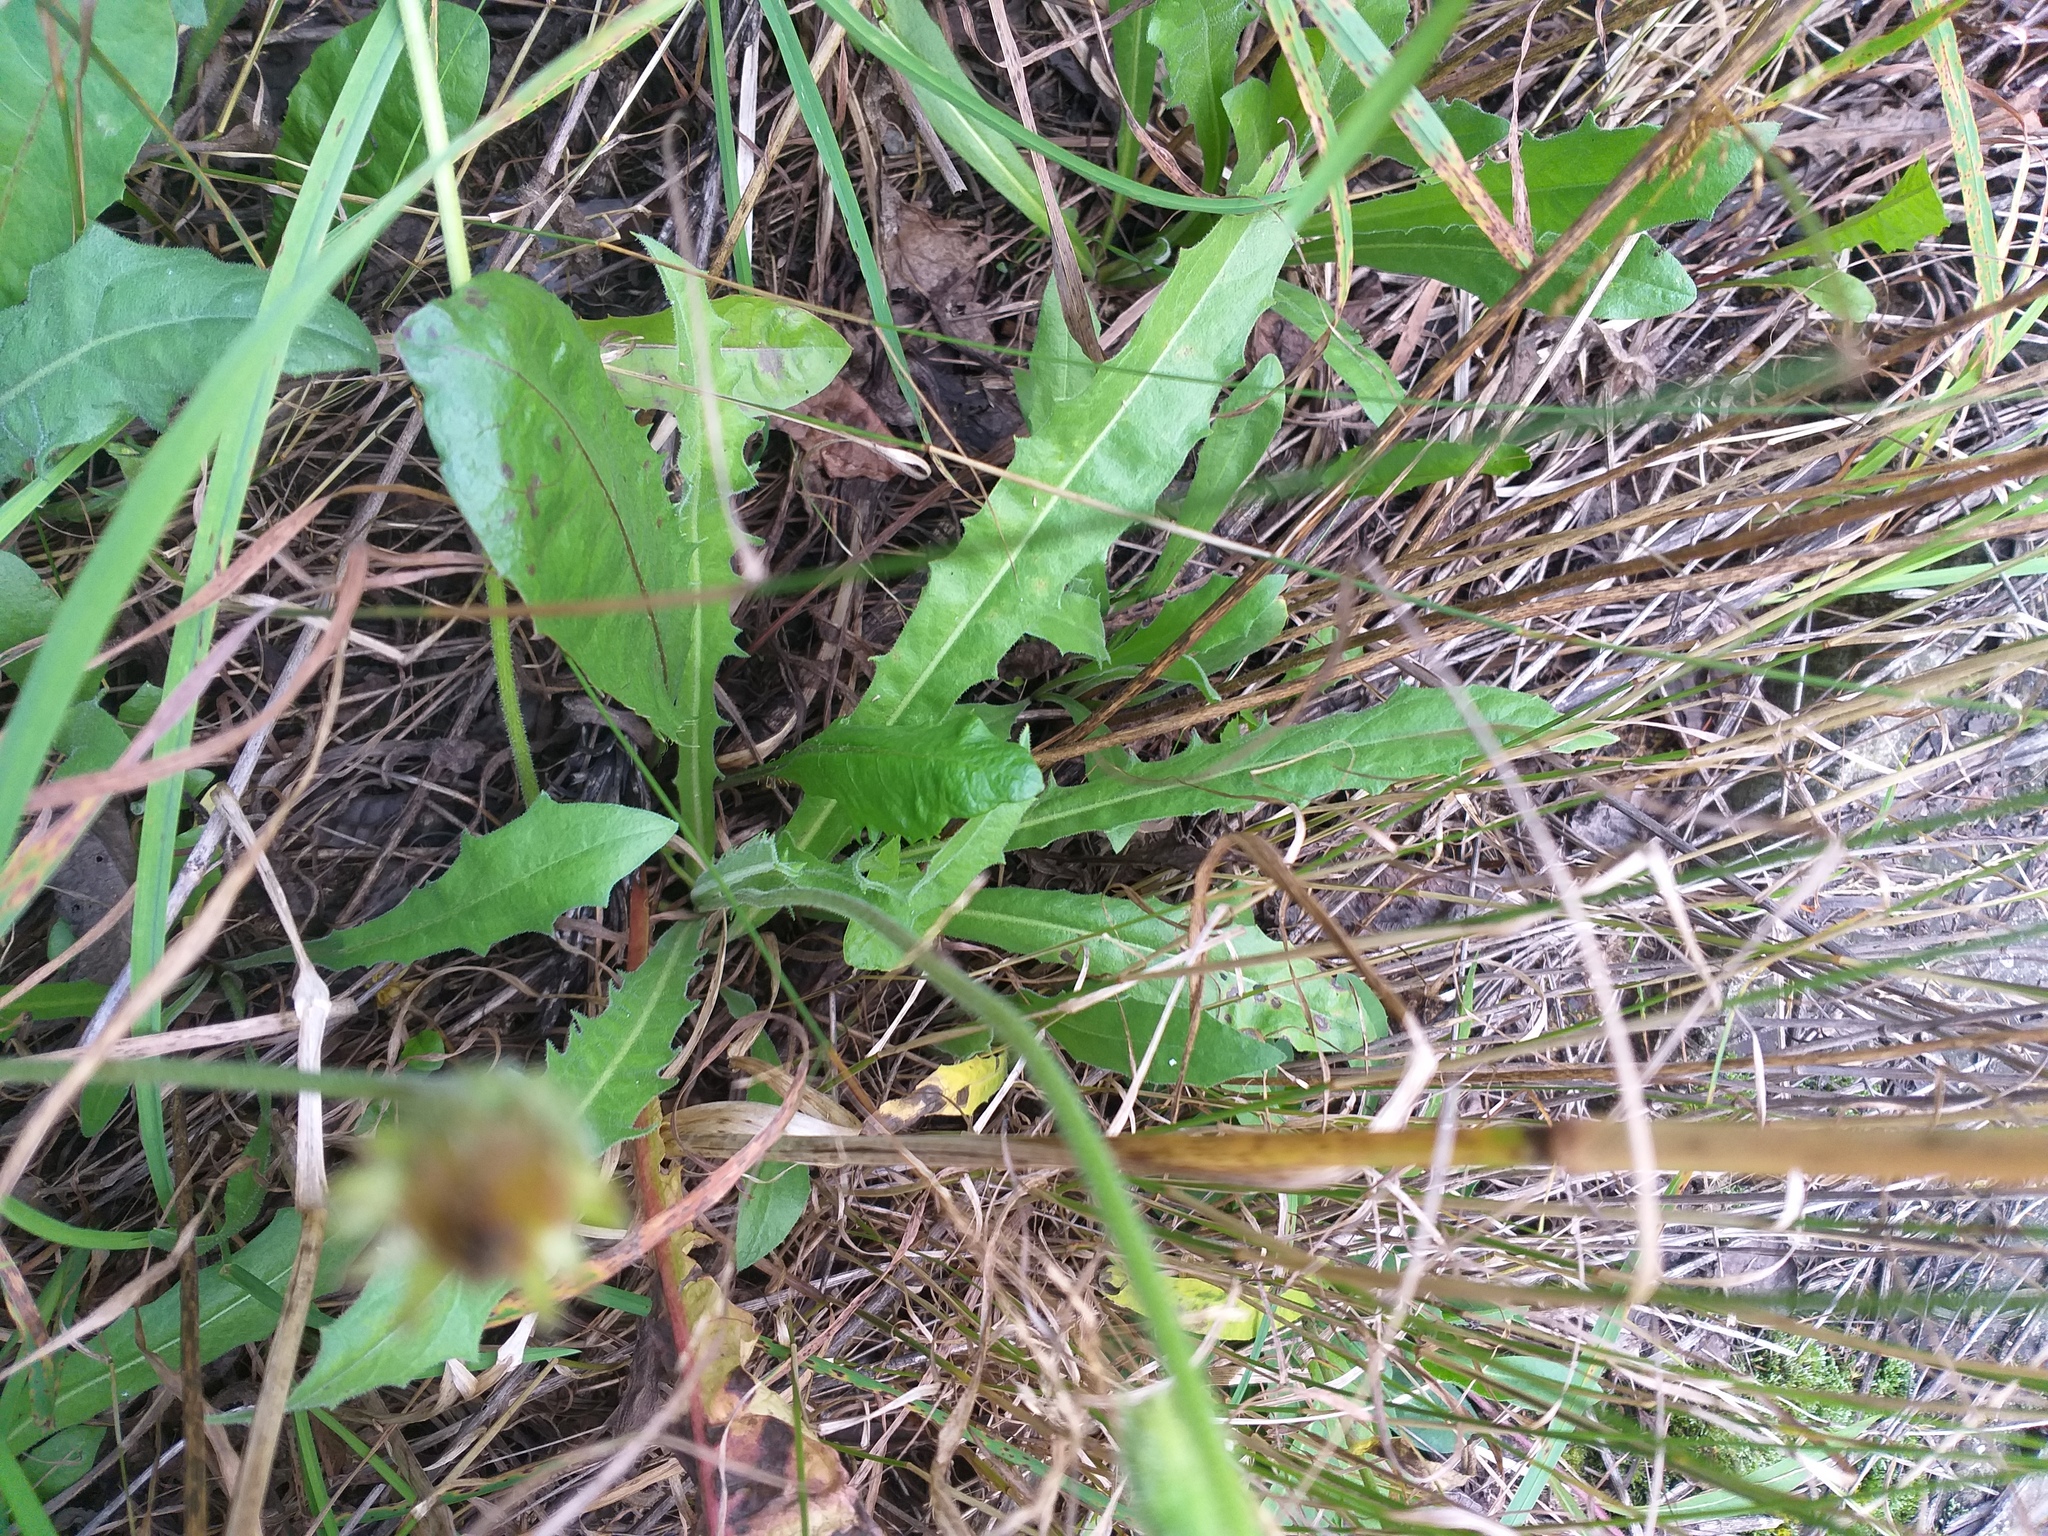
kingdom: Plantae
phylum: Tracheophyta
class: Magnoliopsida
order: Asterales
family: Asteraceae
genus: Leontodon
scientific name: Leontodon hispidus
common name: Rough hawkbit
